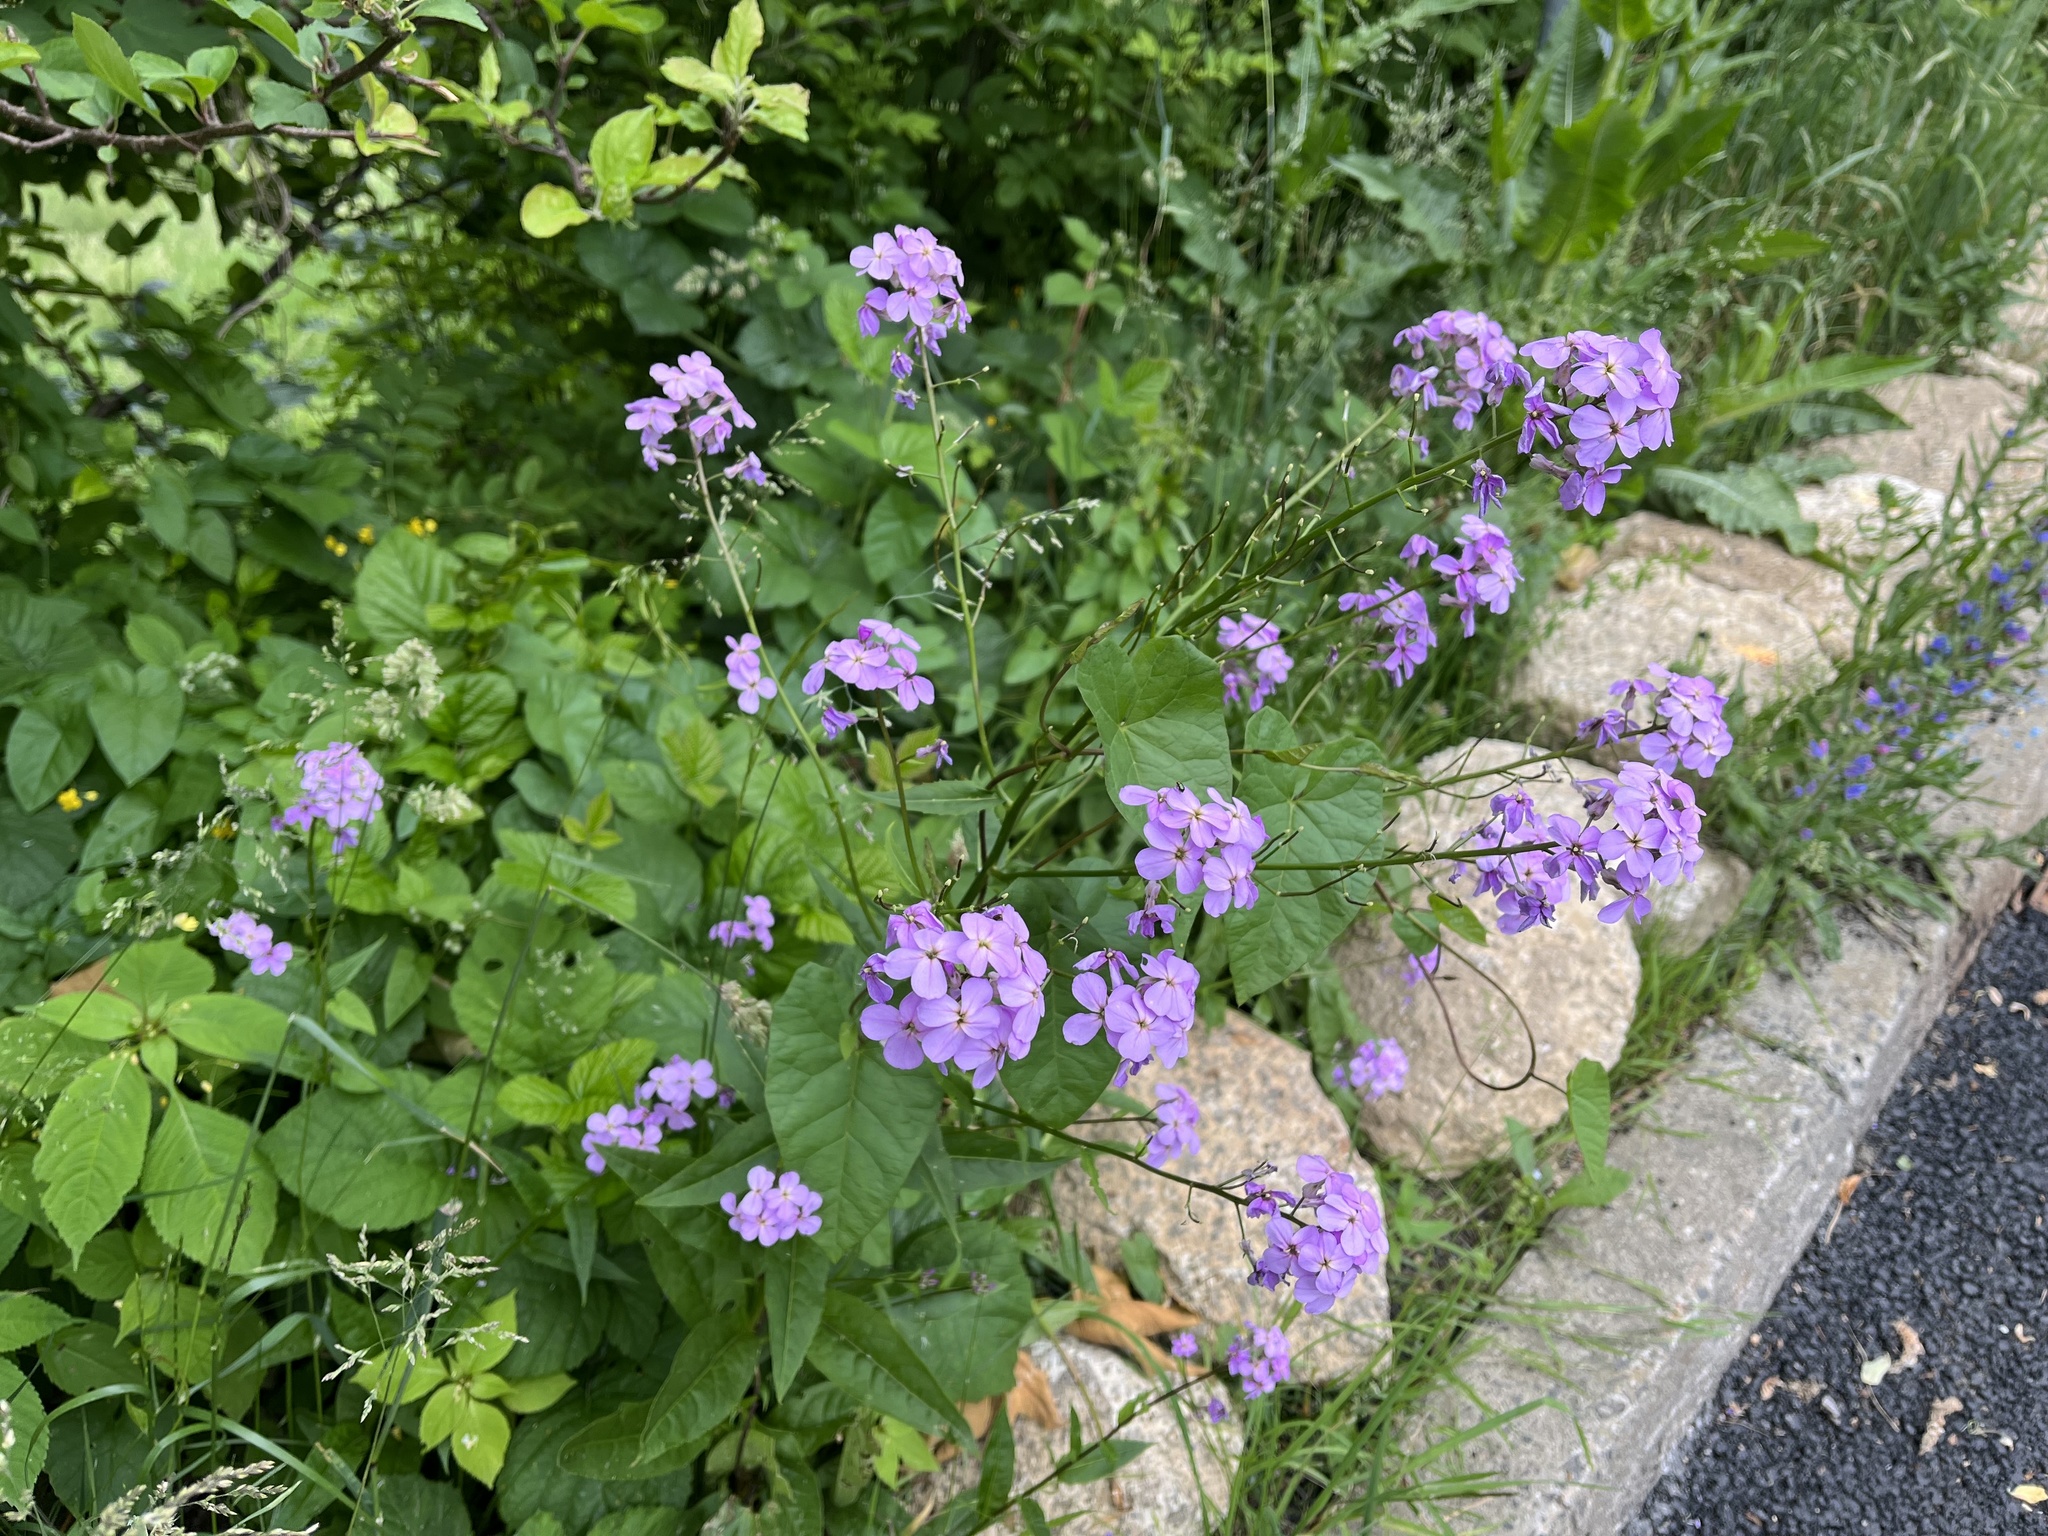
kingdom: Plantae
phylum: Tracheophyta
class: Magnoliopsida
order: Brassicales
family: Brassicaceae
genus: Hesperis
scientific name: Hesperis matronalis
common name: Dame's-violet
